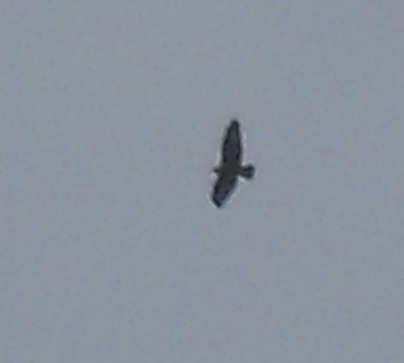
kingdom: Animalia
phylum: Chordata
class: Aves
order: Accipitriformes
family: Accipitridae
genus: Buteo
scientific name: Buteo rufinus
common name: Long-legged buzzard
